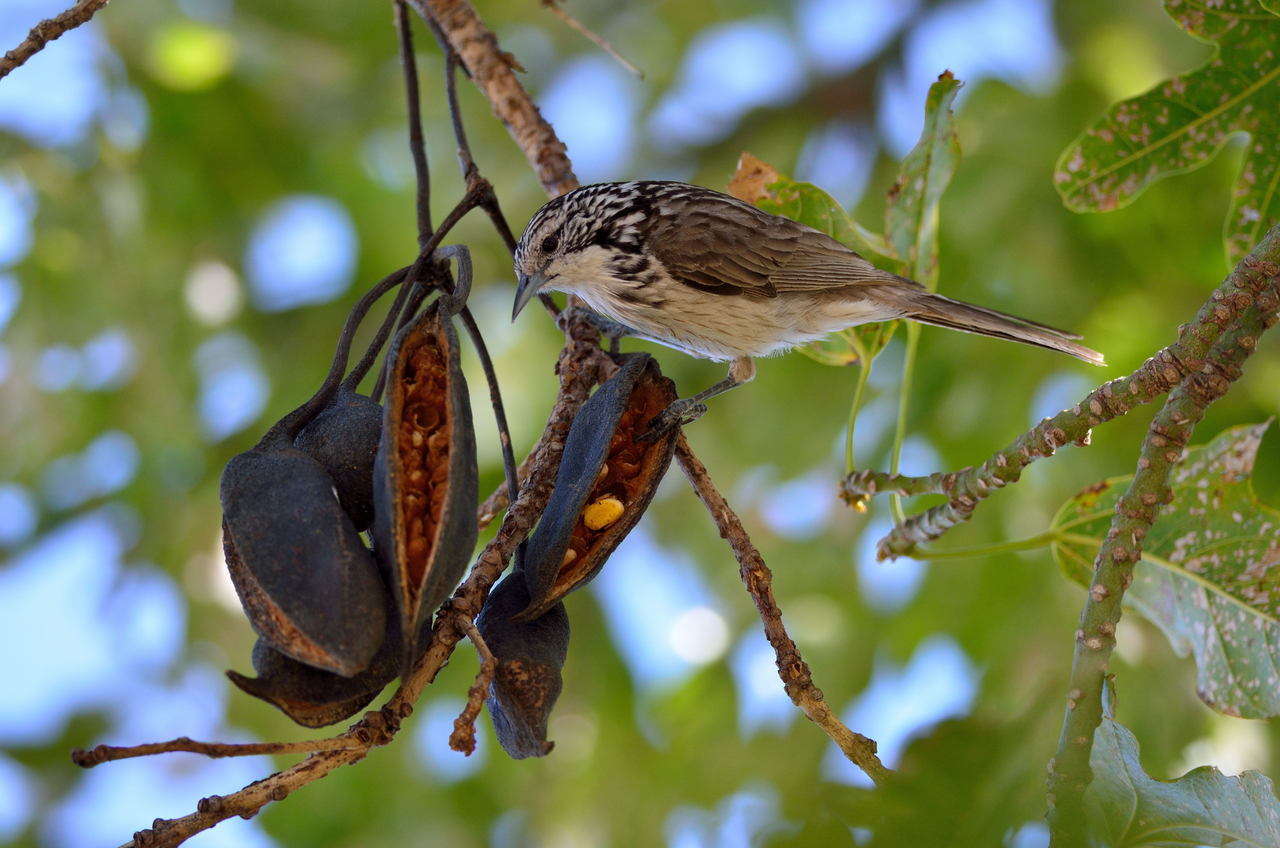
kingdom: Animalia
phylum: Chordata
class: Aves
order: Passeriformes
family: Meliphagidae
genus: Plectorhyncha
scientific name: Plectorhyncha lanceolata
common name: Striped honeyeater
